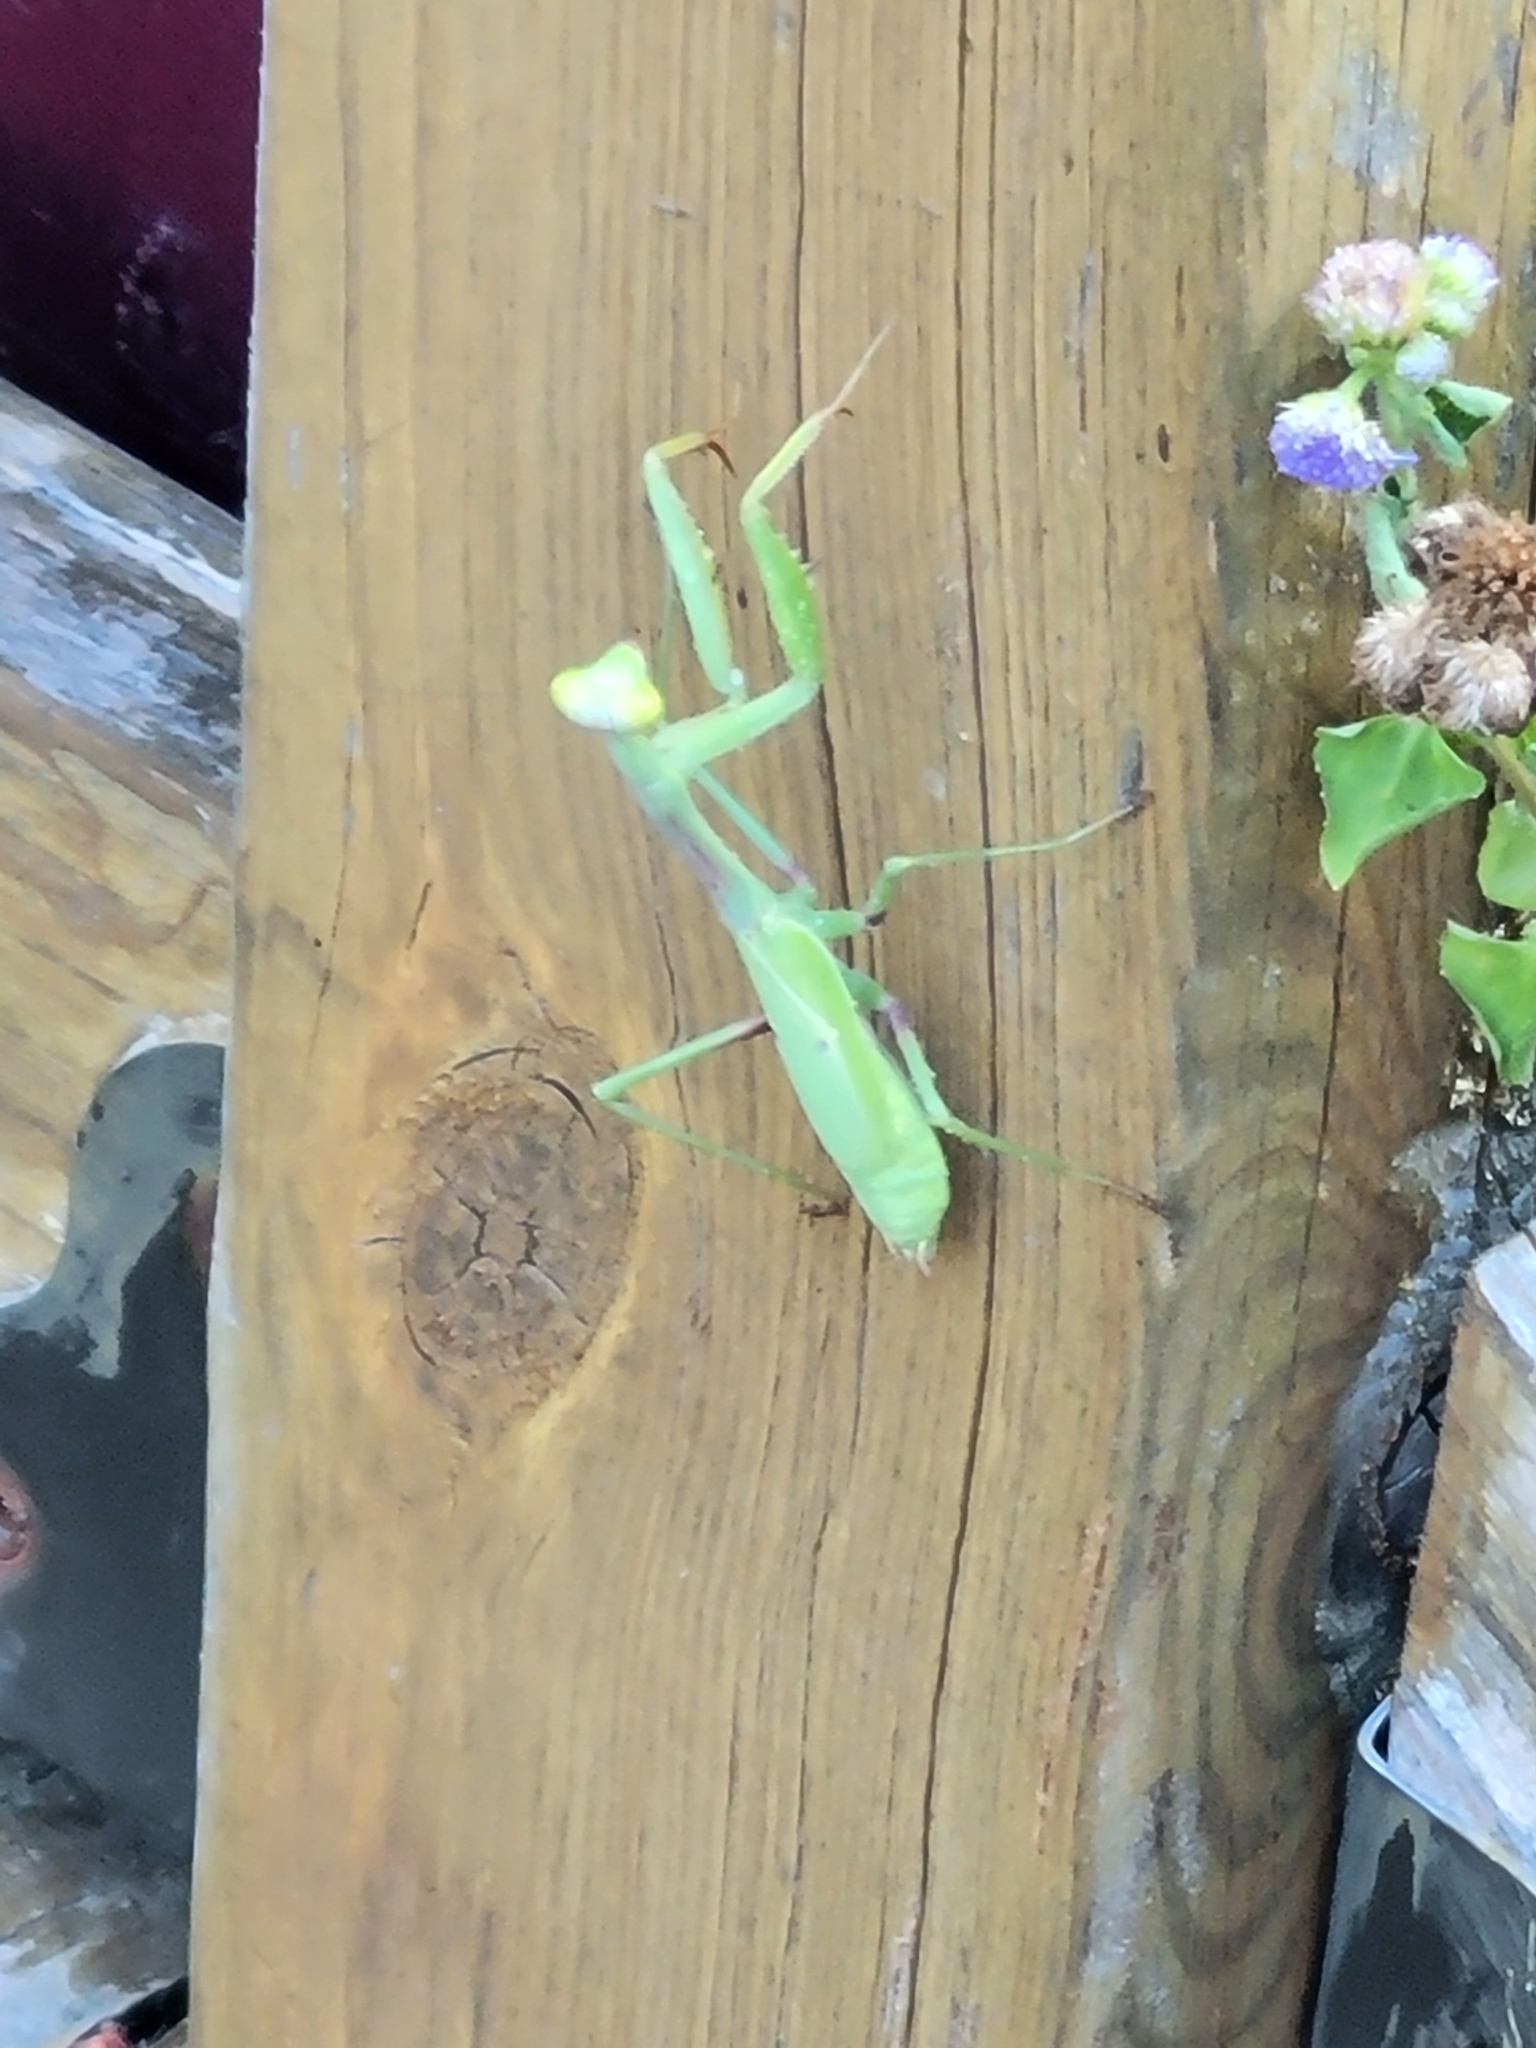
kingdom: Animalia
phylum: Arthropoda
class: Insecta
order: Mantodea
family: Mantidae
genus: Stagmomantis
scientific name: Stagmomantis carolina
